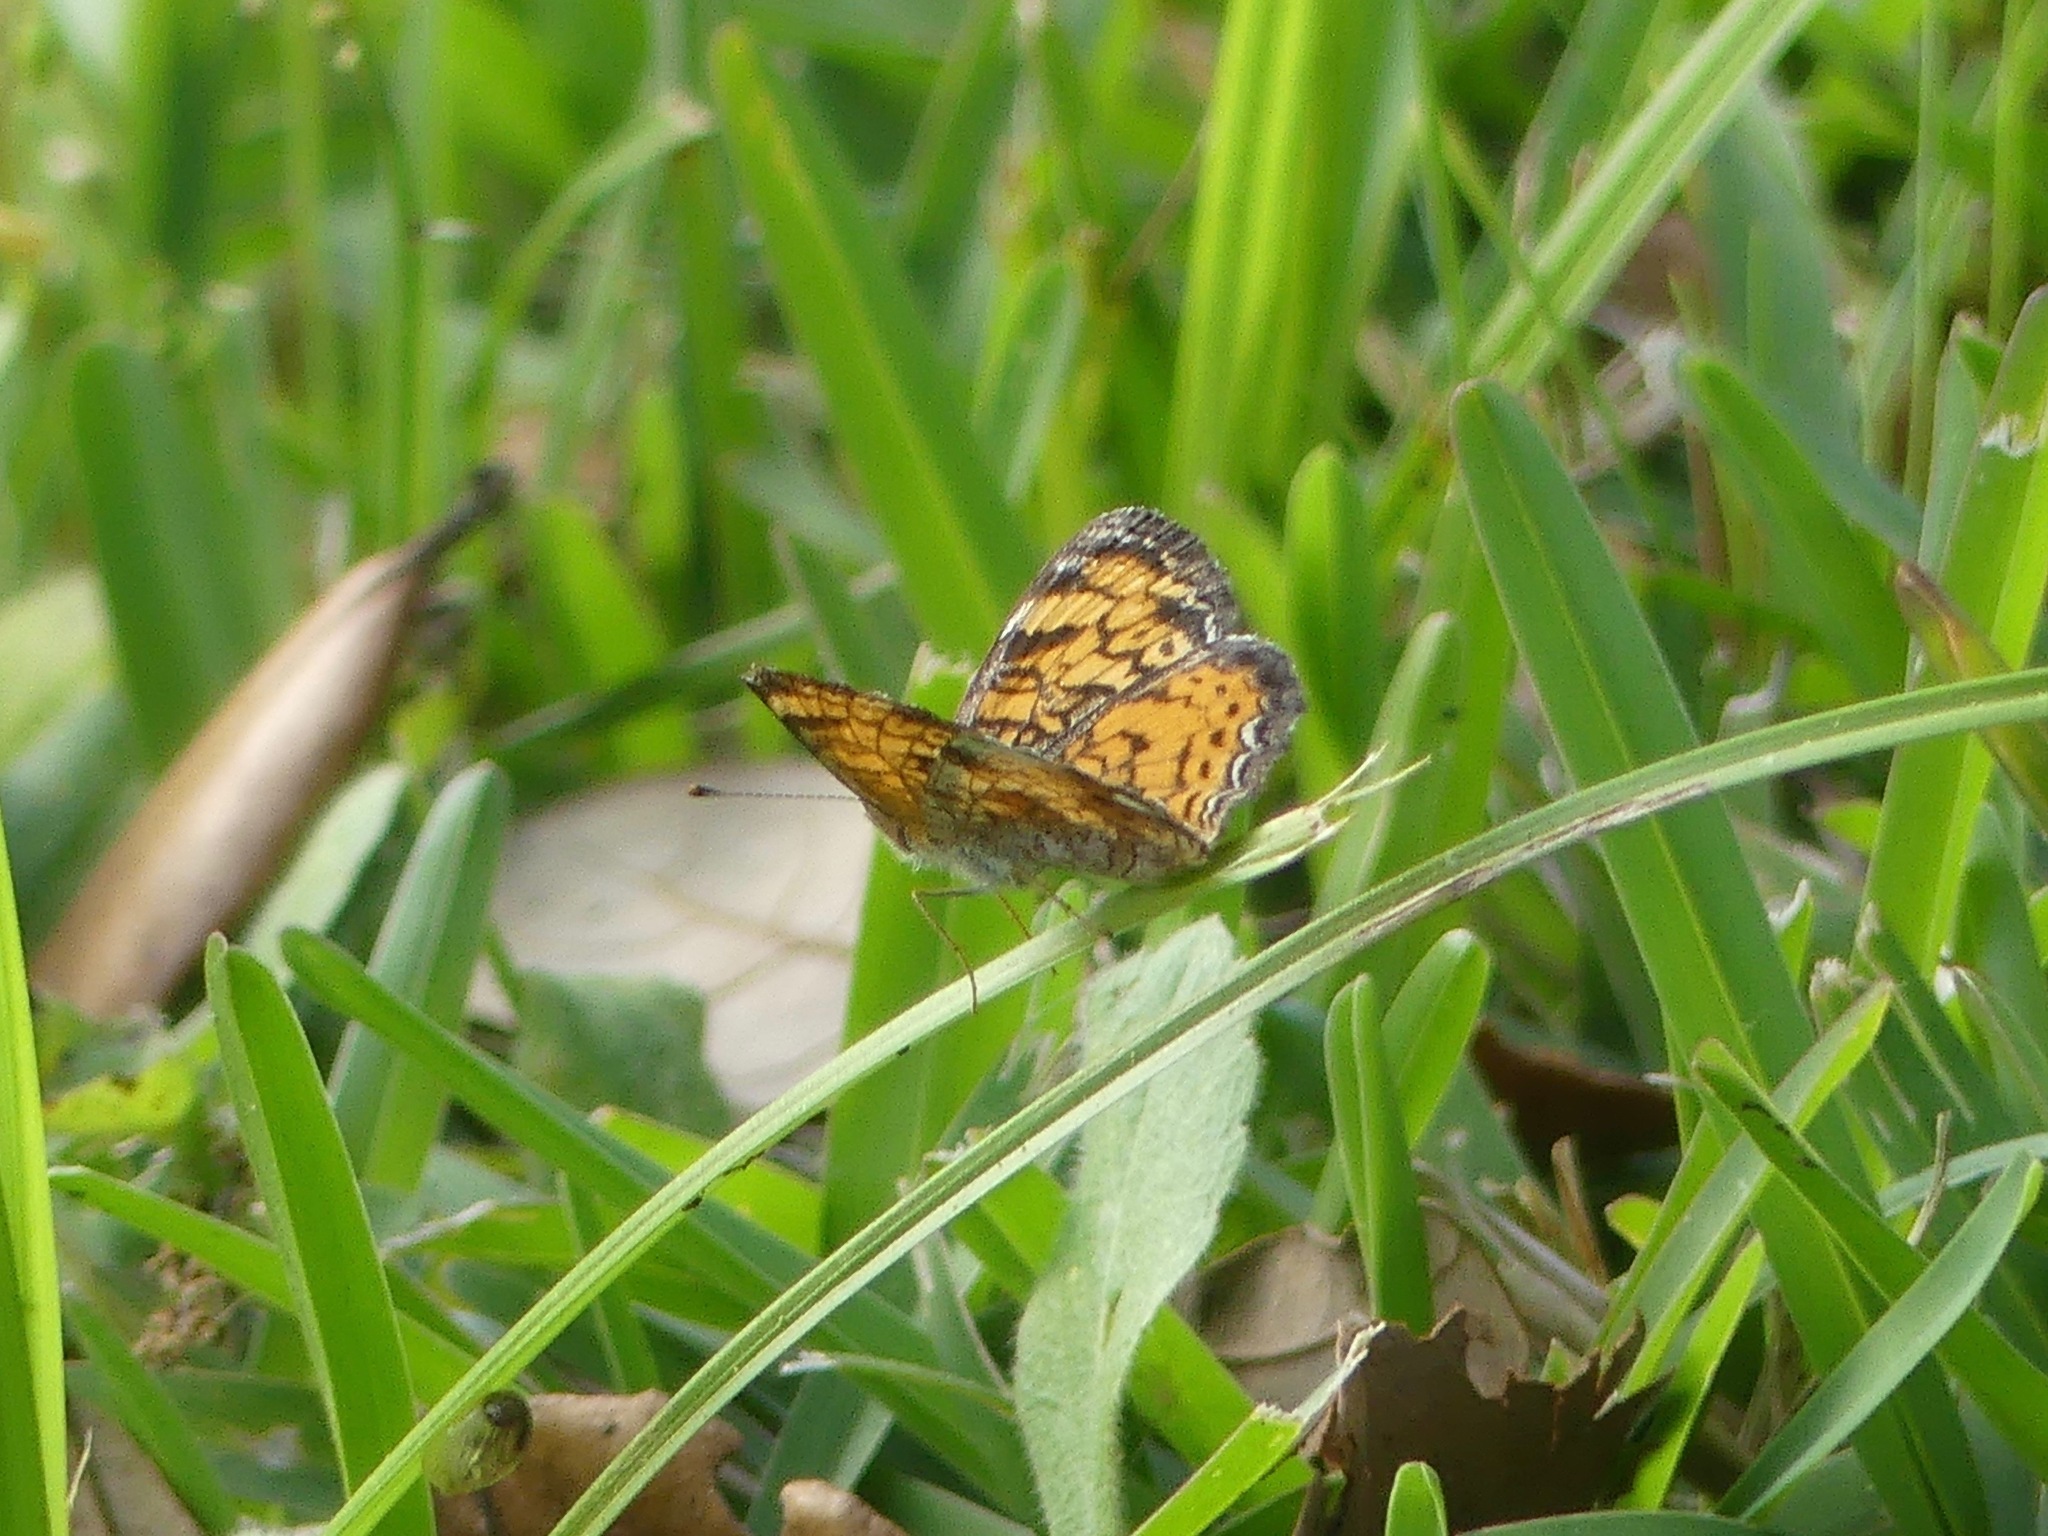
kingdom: Animalia
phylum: Arthropoda
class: Insecta
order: Lepidoptera
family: Nymphalidae
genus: Phyciodes
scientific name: Phyciodes tharos
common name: Pearl crescent
